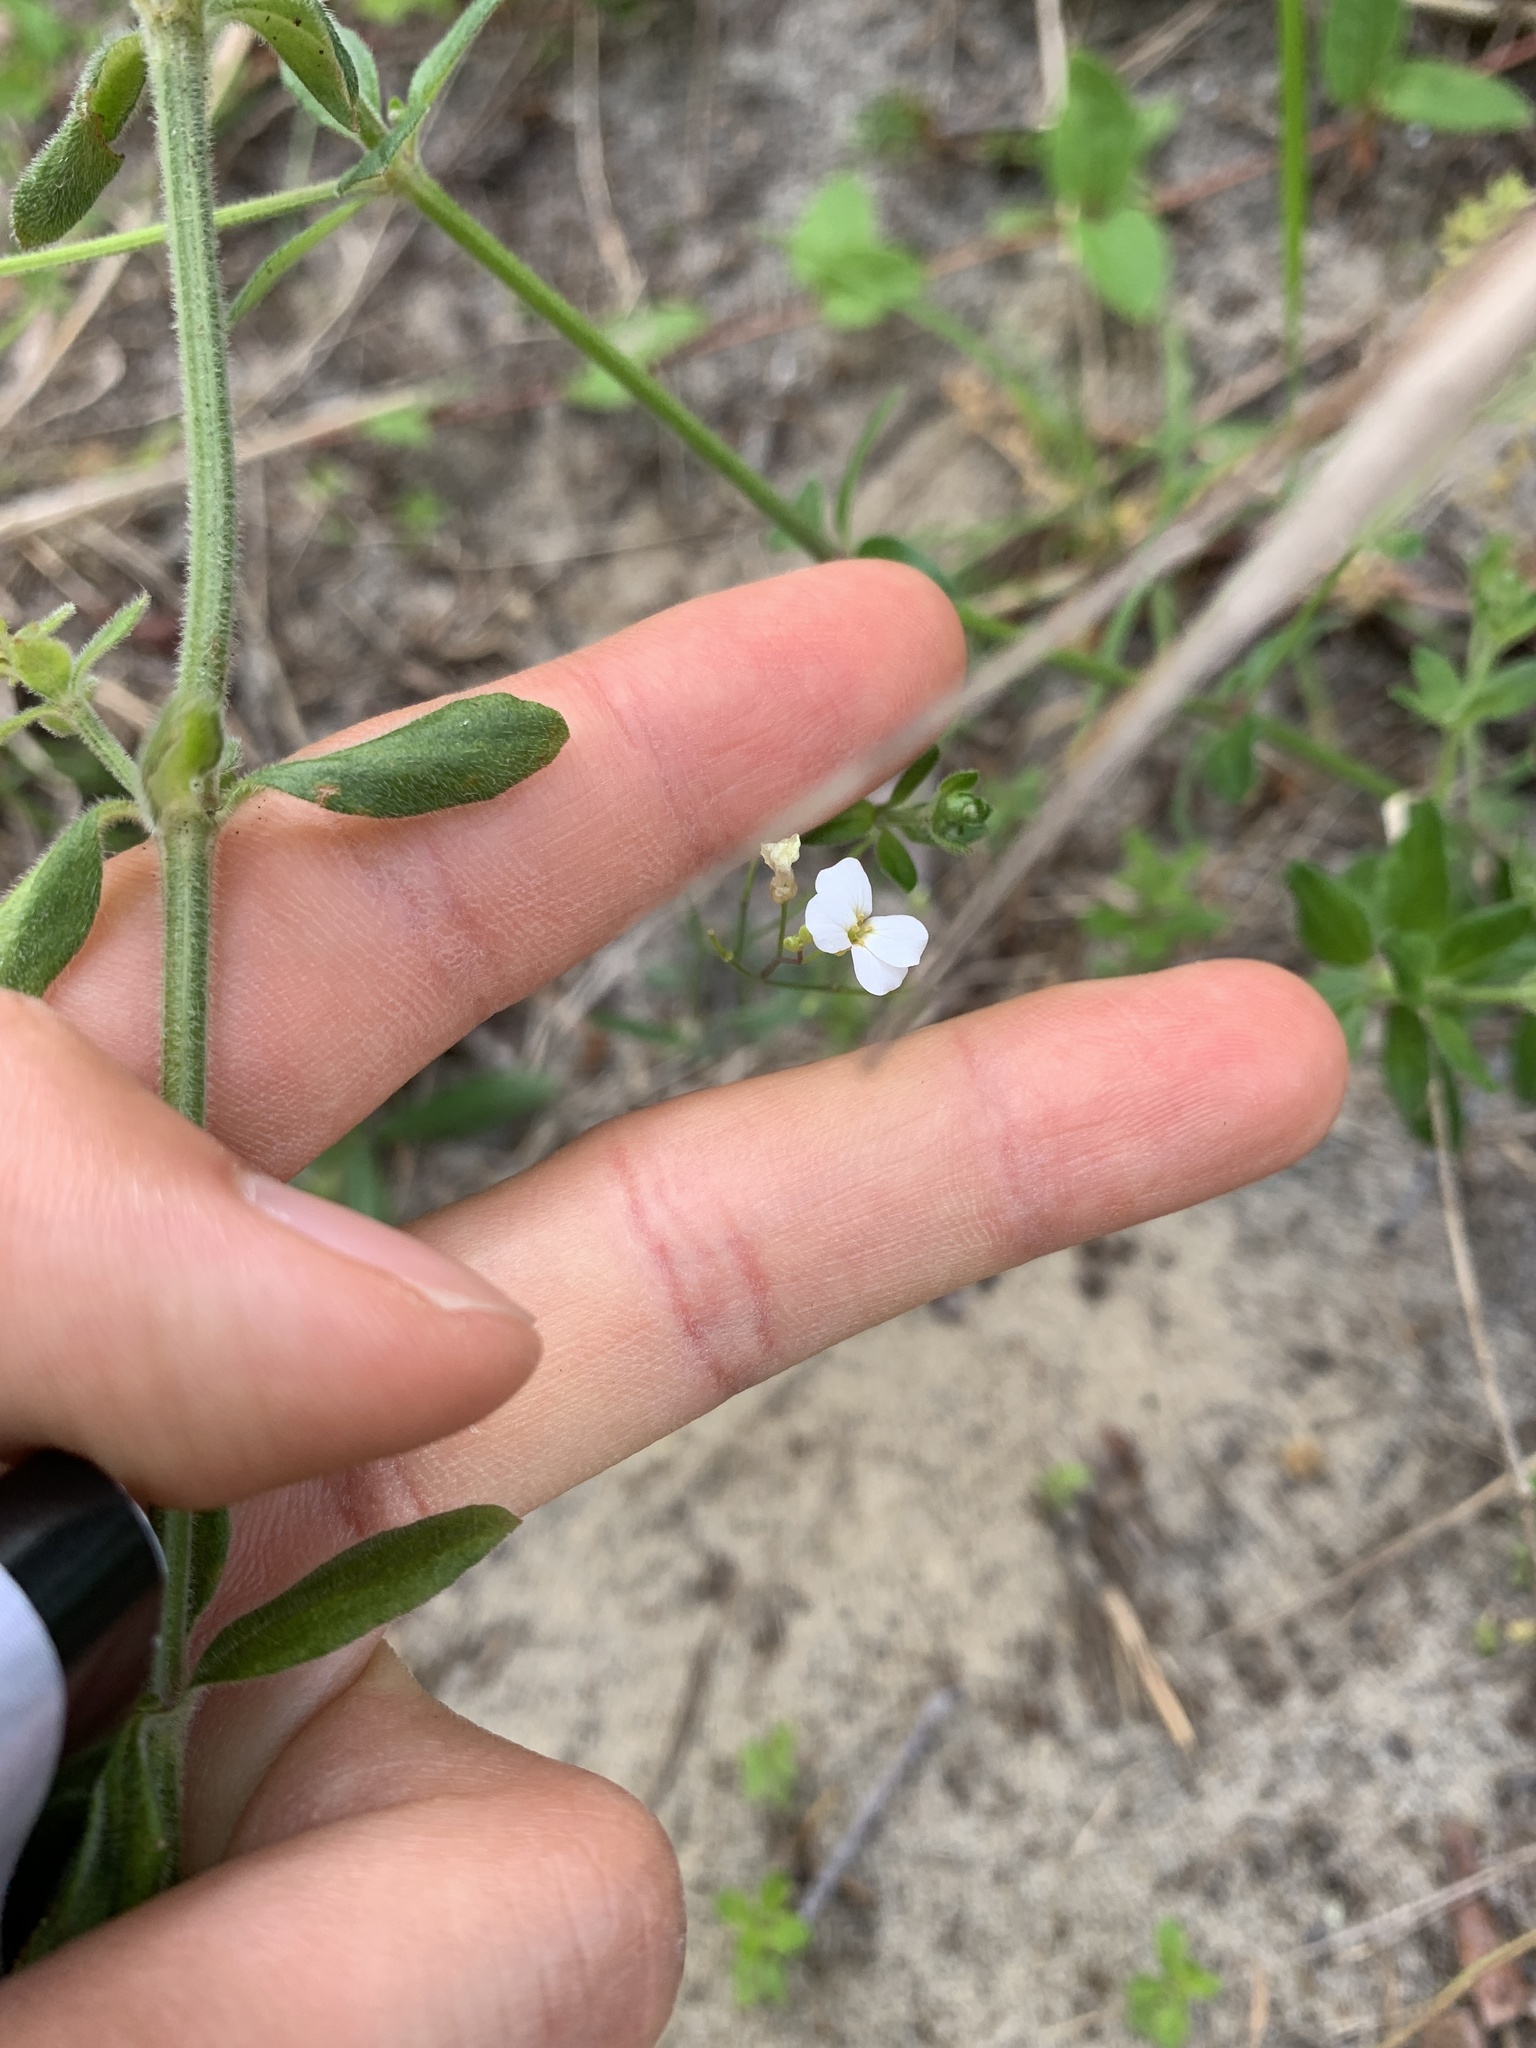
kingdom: Plantae
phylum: Tracheophyta
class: Magnoliopsida
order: Brassicales
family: Brassicaceae
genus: Arabidopsis
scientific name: Arabidopsis lyrata
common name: Lyrate rockcress
